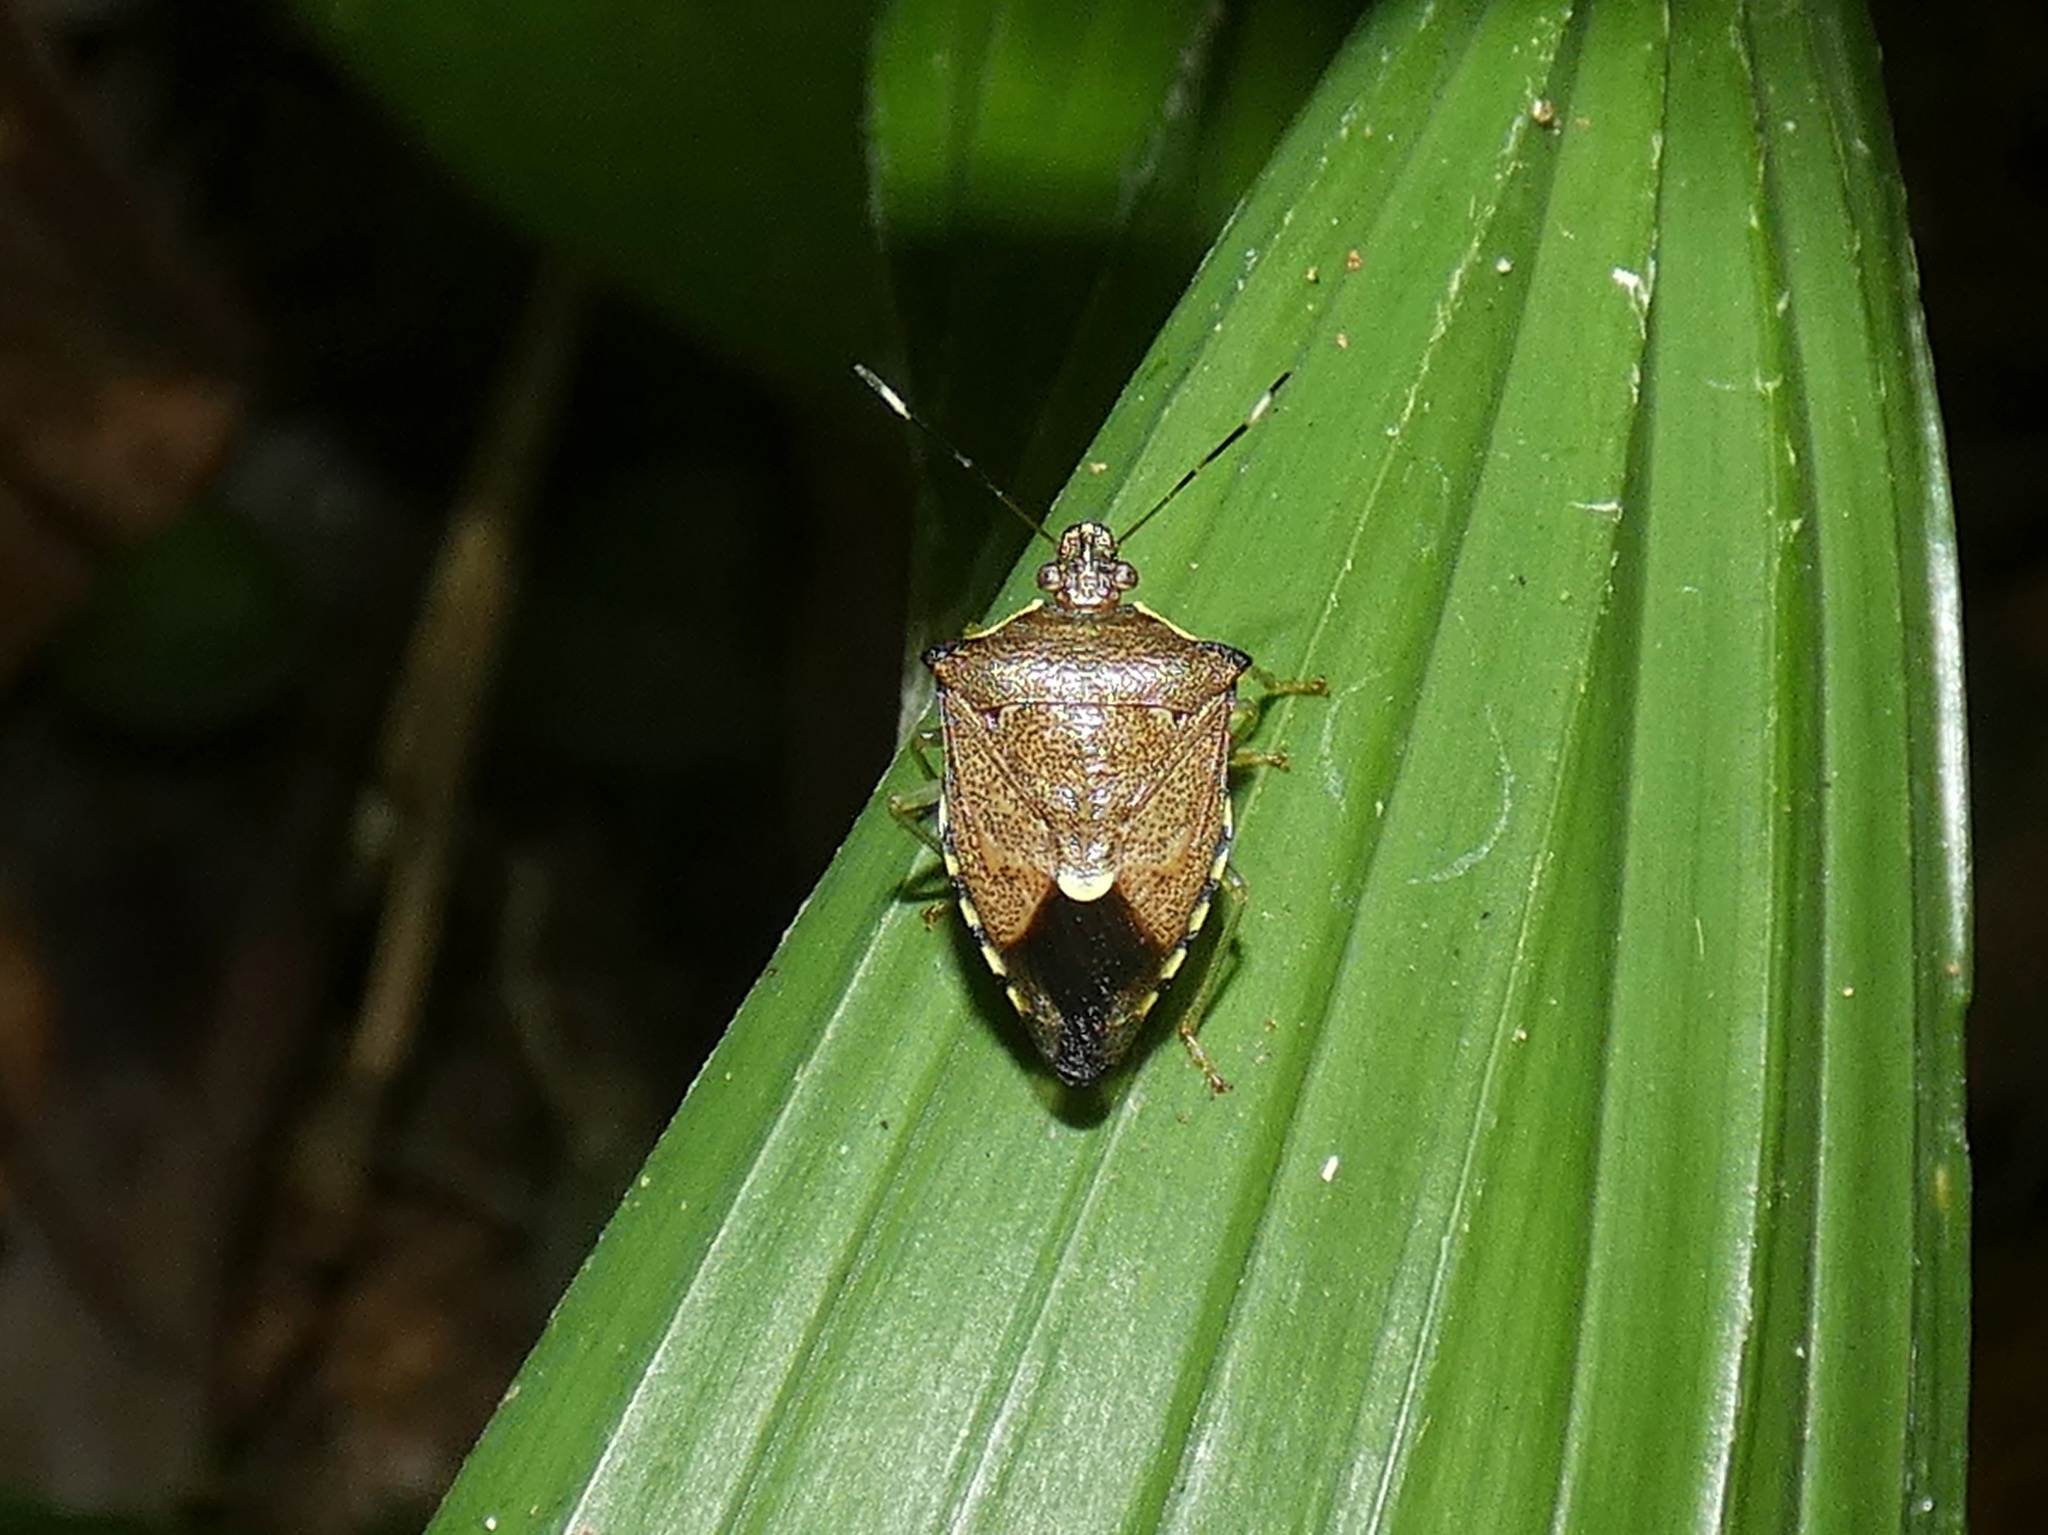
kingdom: Animalia
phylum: Arthropoda
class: Insecta
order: Hemiptera
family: Pentatomidae
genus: Podisus
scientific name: Podisus aenescens
